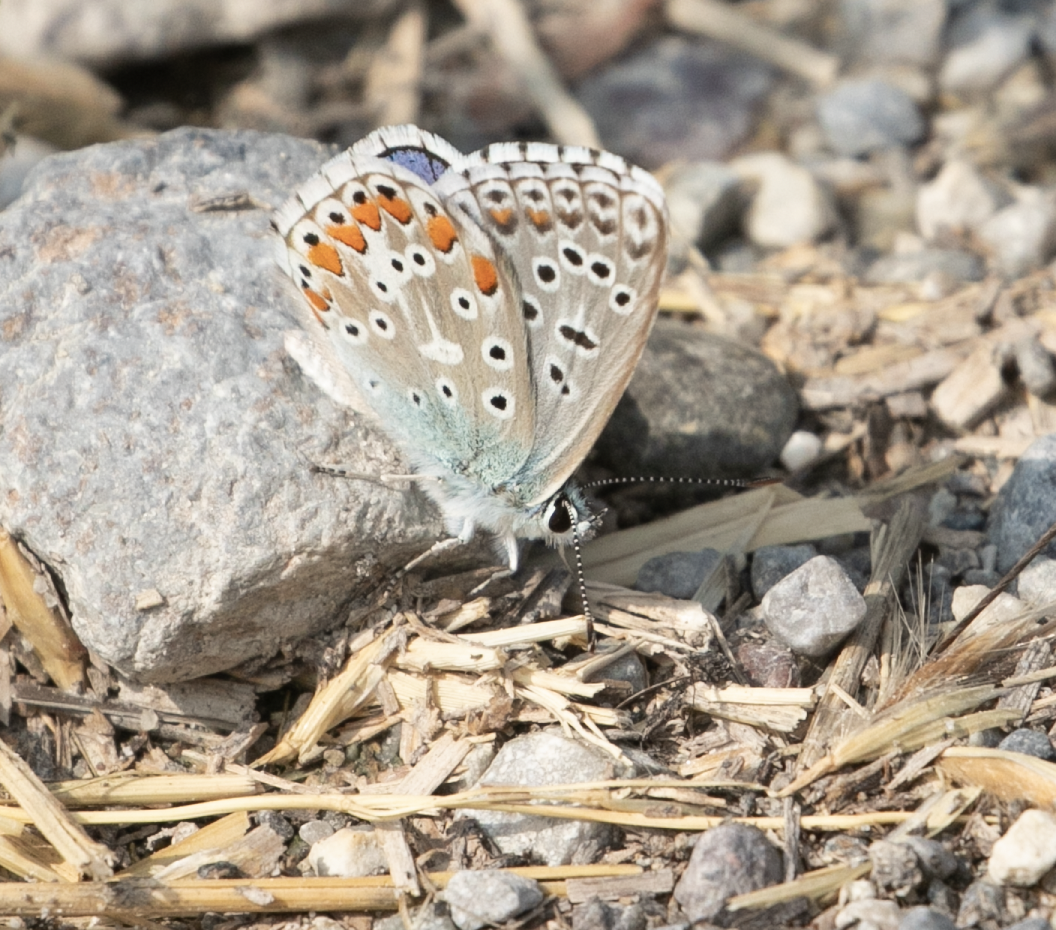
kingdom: Animalia
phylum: Arthropoda
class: Insecta
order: Lepidoptera
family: Lycaenidae
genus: Lysandra
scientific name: Lysandra bellargus
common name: Adonis blue
